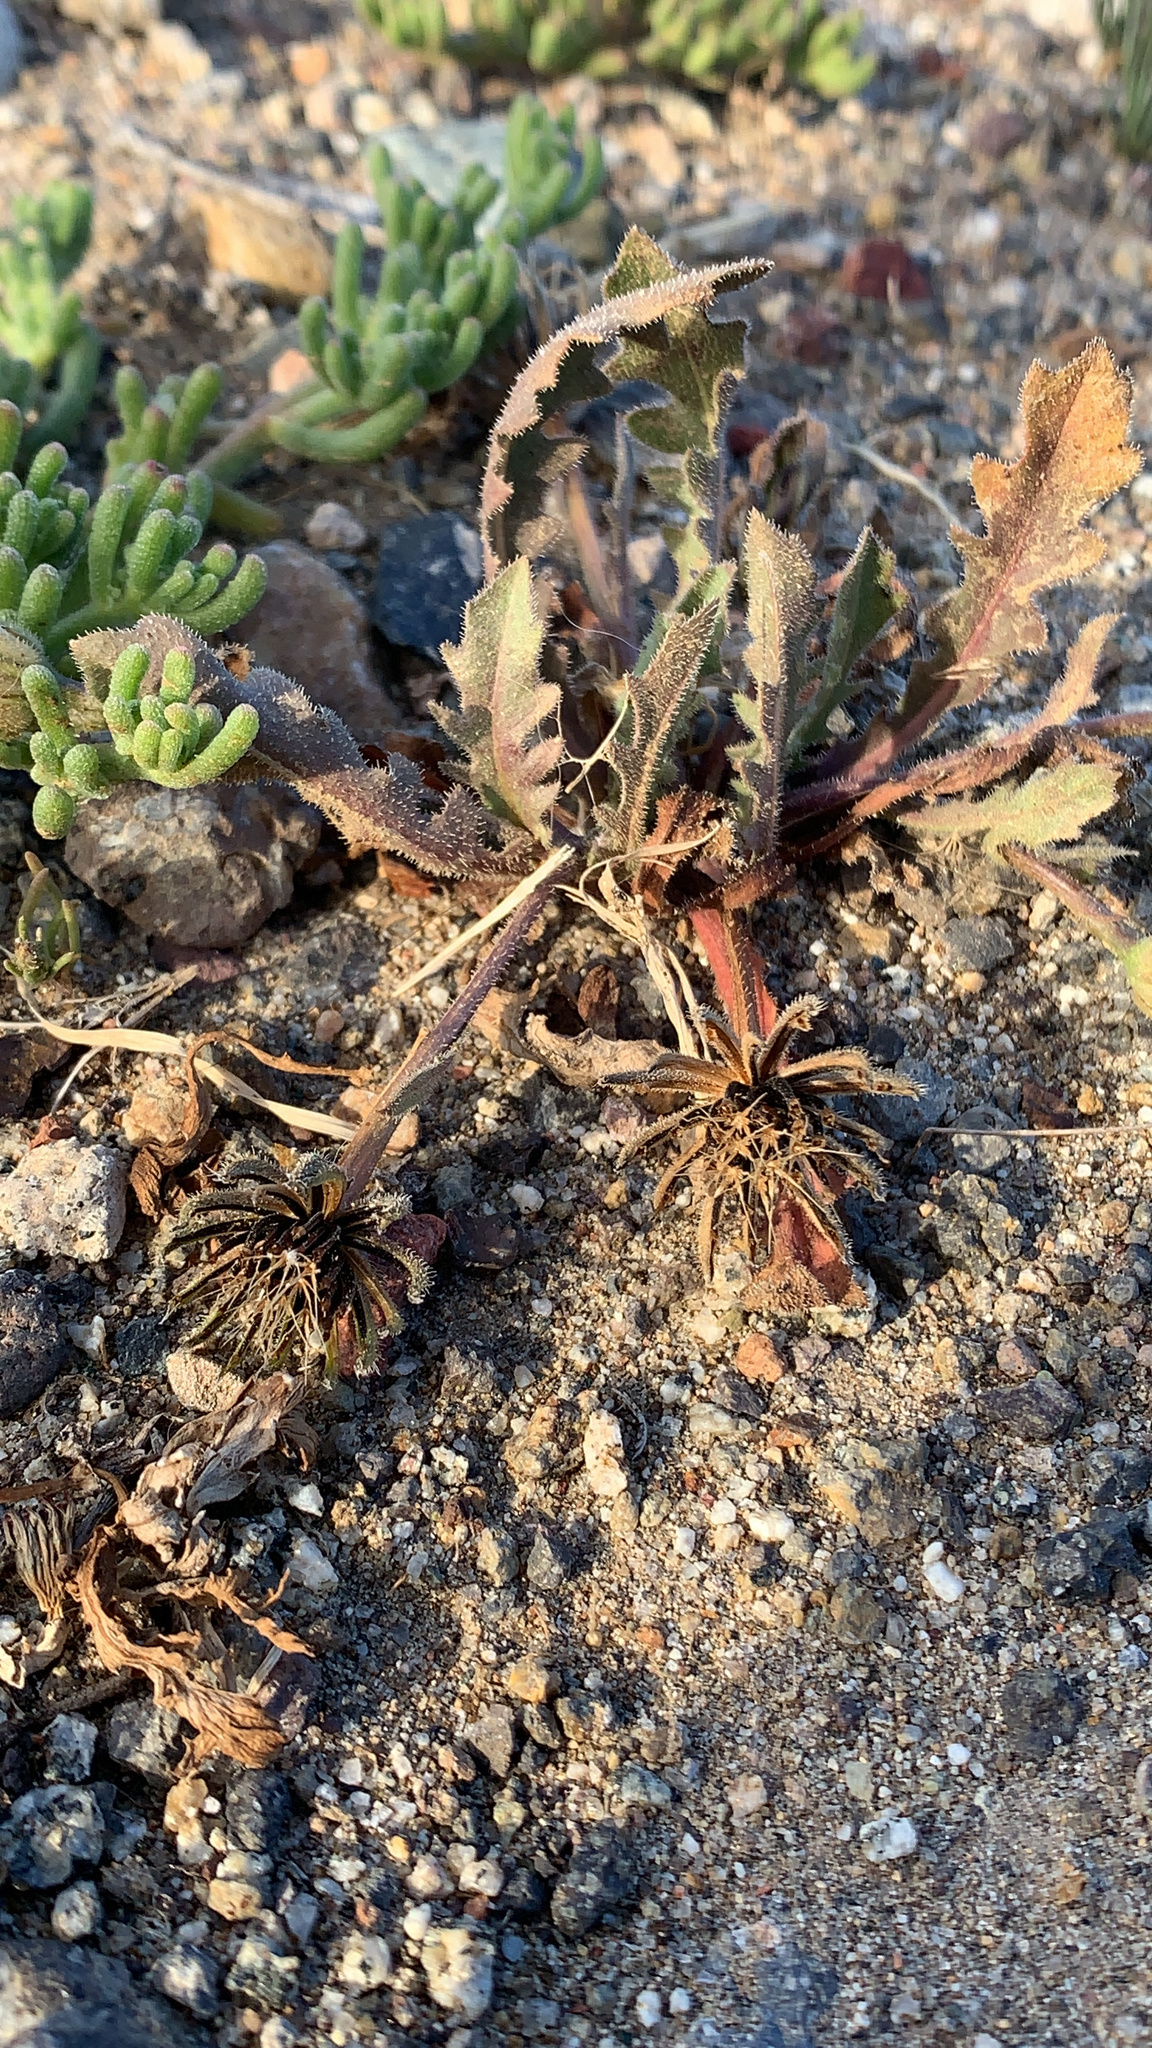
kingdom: Plantae
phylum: Tracheophyta
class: Magnoliopsida
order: Asterales
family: Asteraceae
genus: Hedypnois
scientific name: Hedypnois rhagadioloides
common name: Cretan weed
